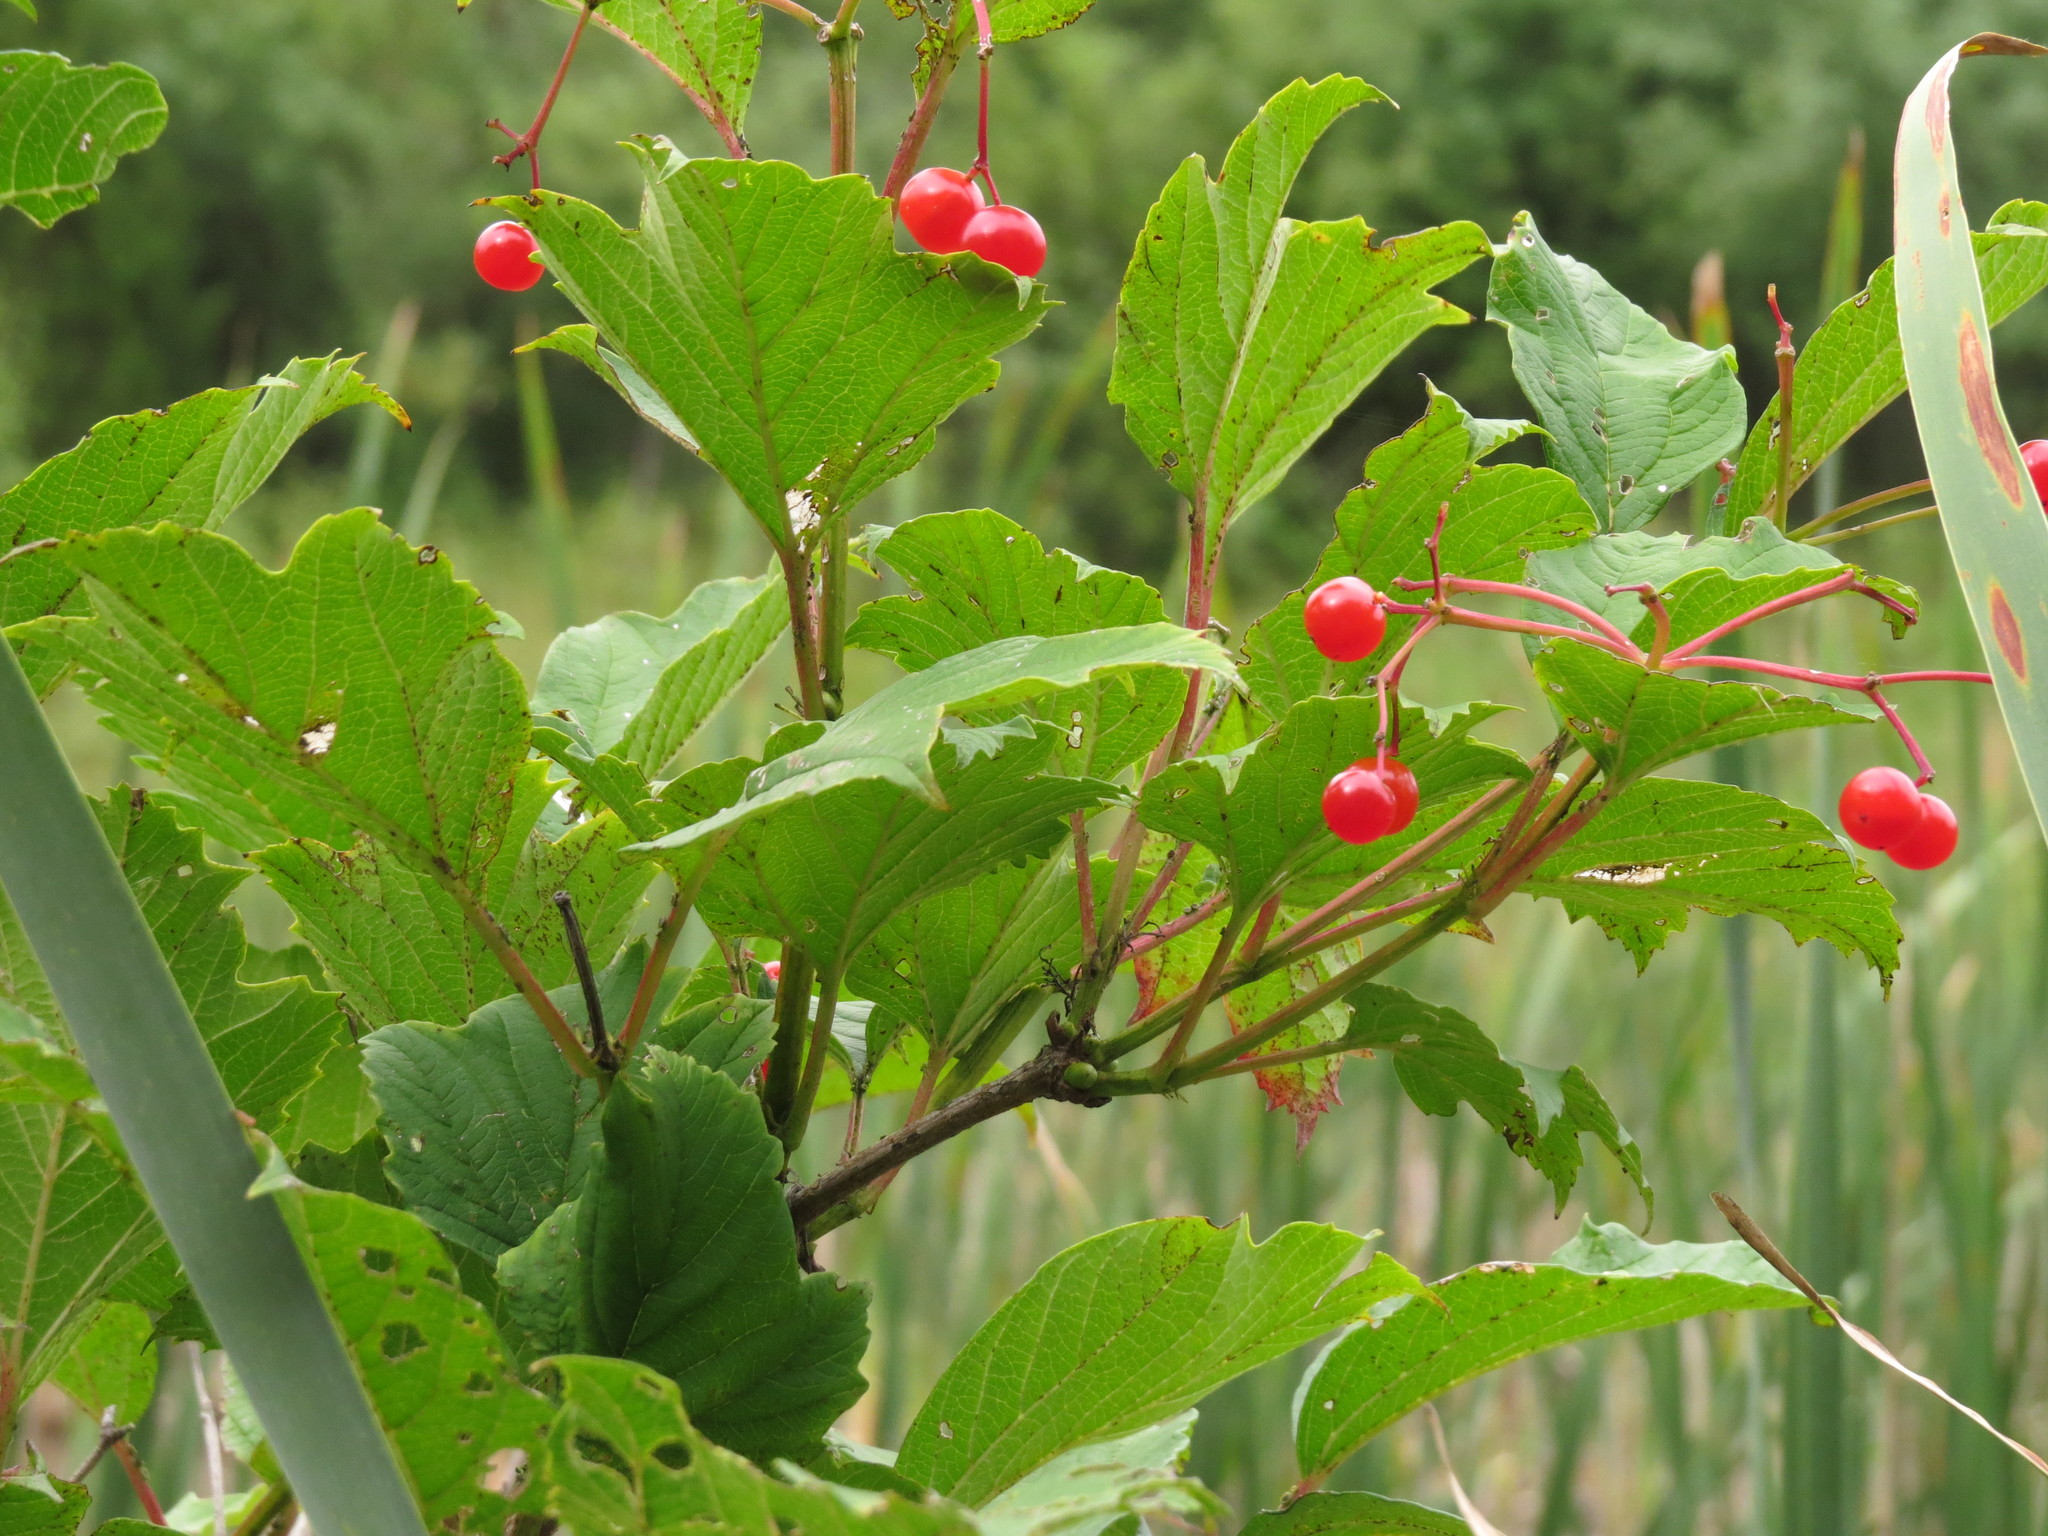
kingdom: Plantae
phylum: Tracheophyta
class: Magnoliopsida
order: Dipsacales
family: Viburnaceae
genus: Viburnum
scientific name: Viburnum opulus
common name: Guelder-rose
